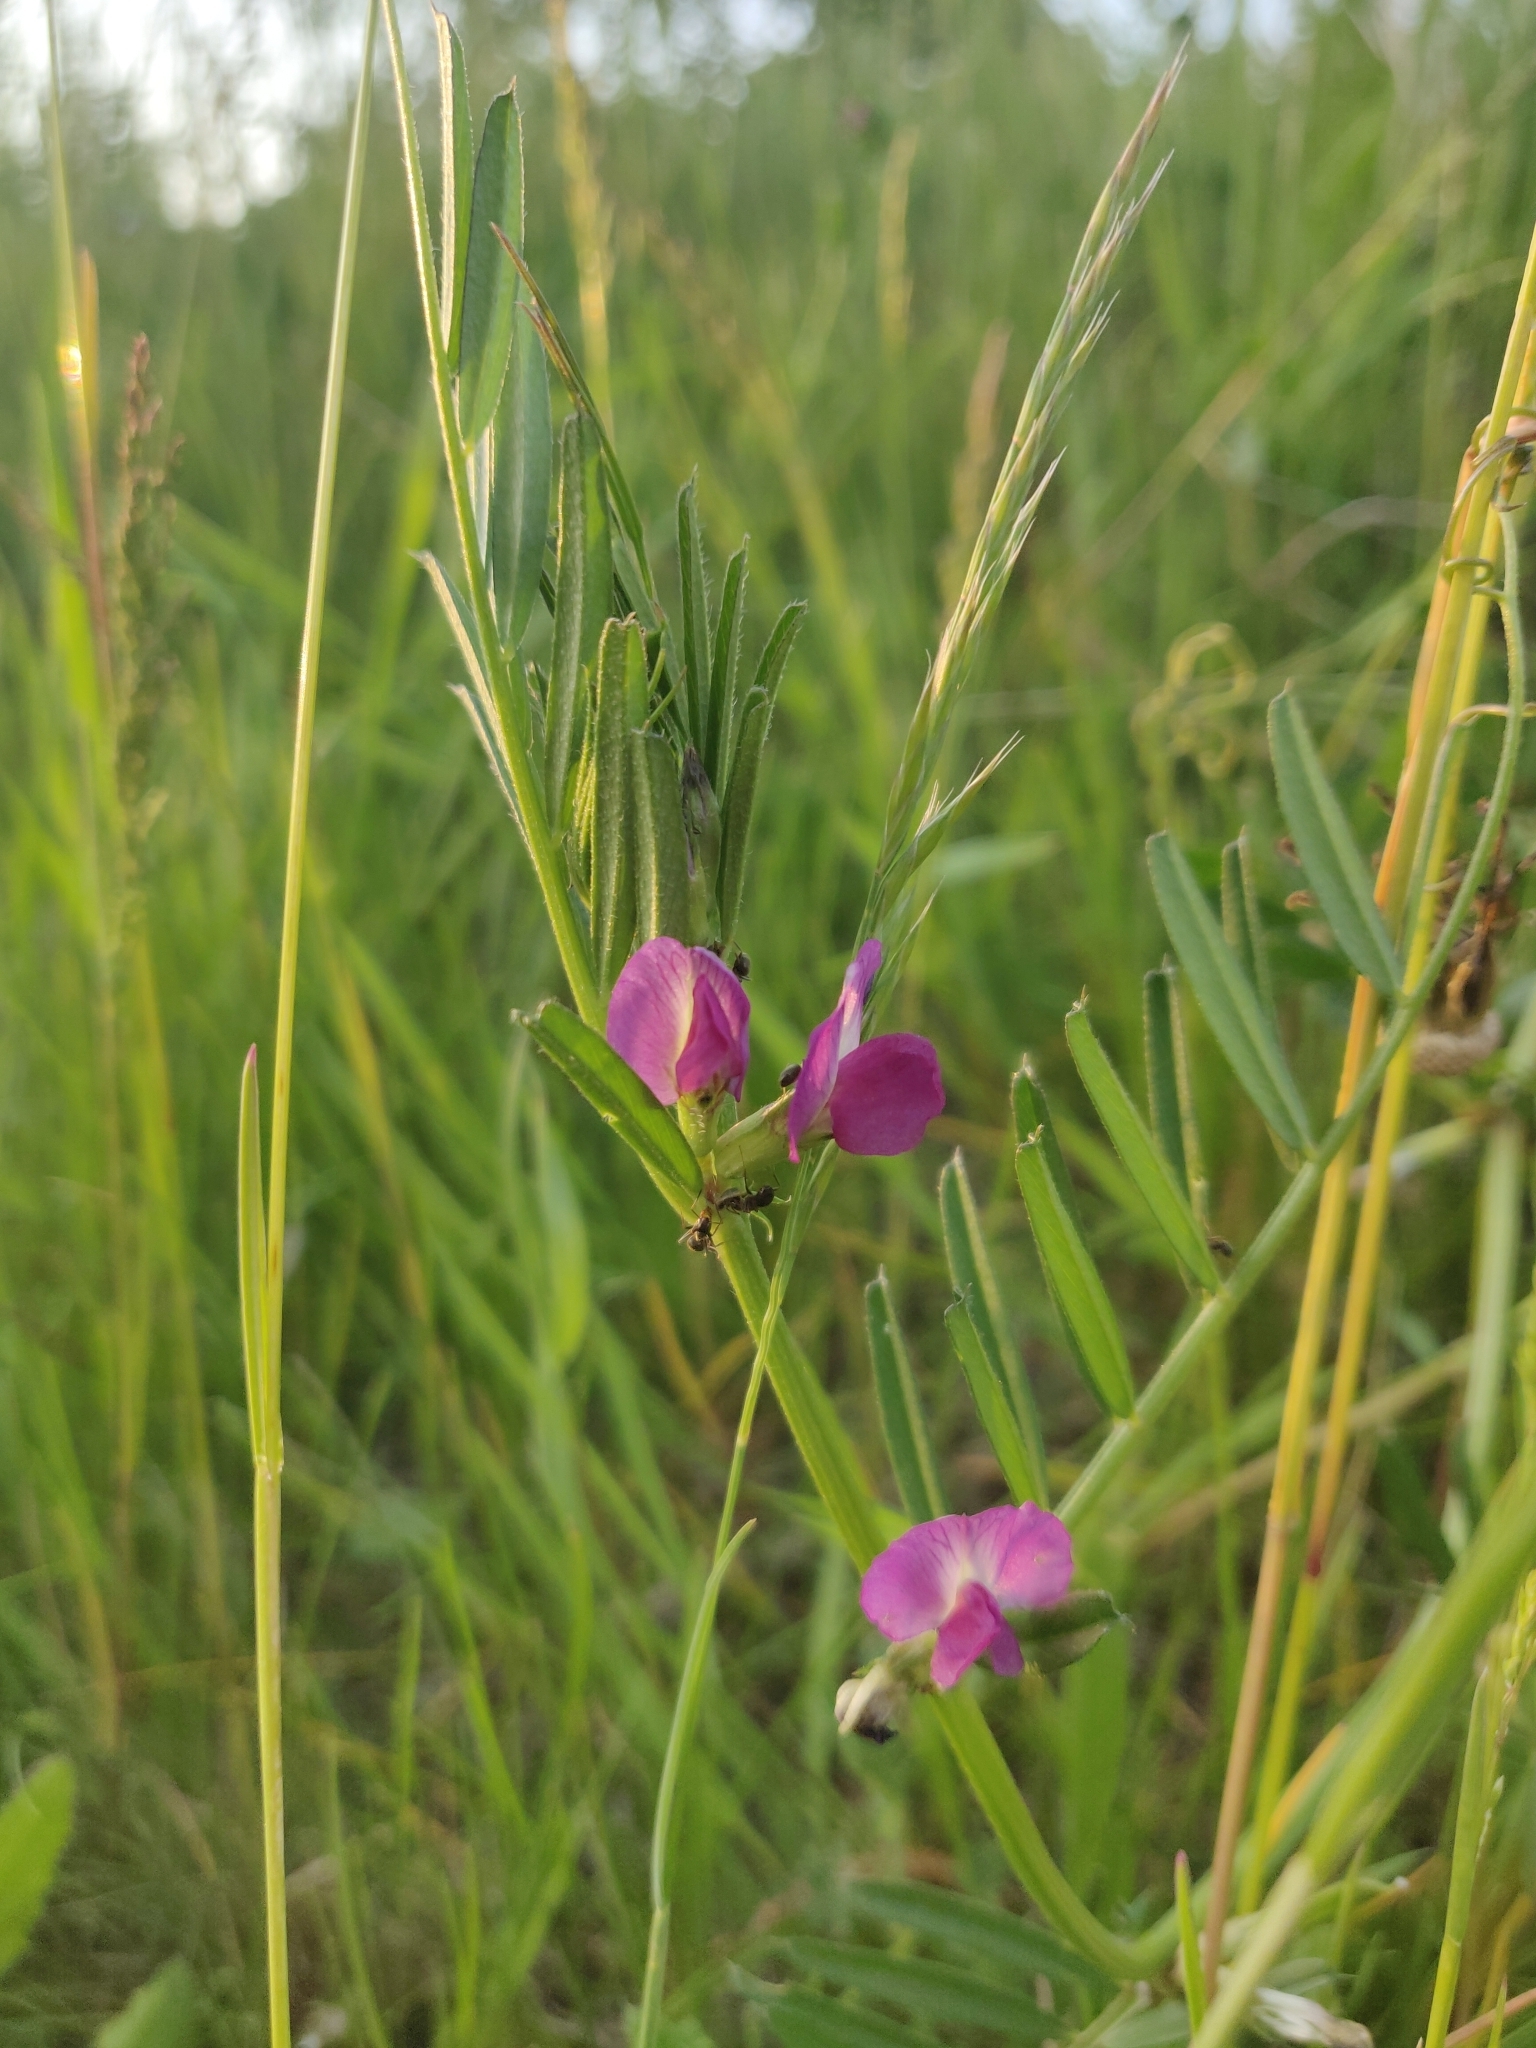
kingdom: Plantae
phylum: Tracheophyta
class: Magnoliopsida
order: Fabales
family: Fabaceae
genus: Vicia
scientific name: Vicia sativa
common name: Garden vetch
